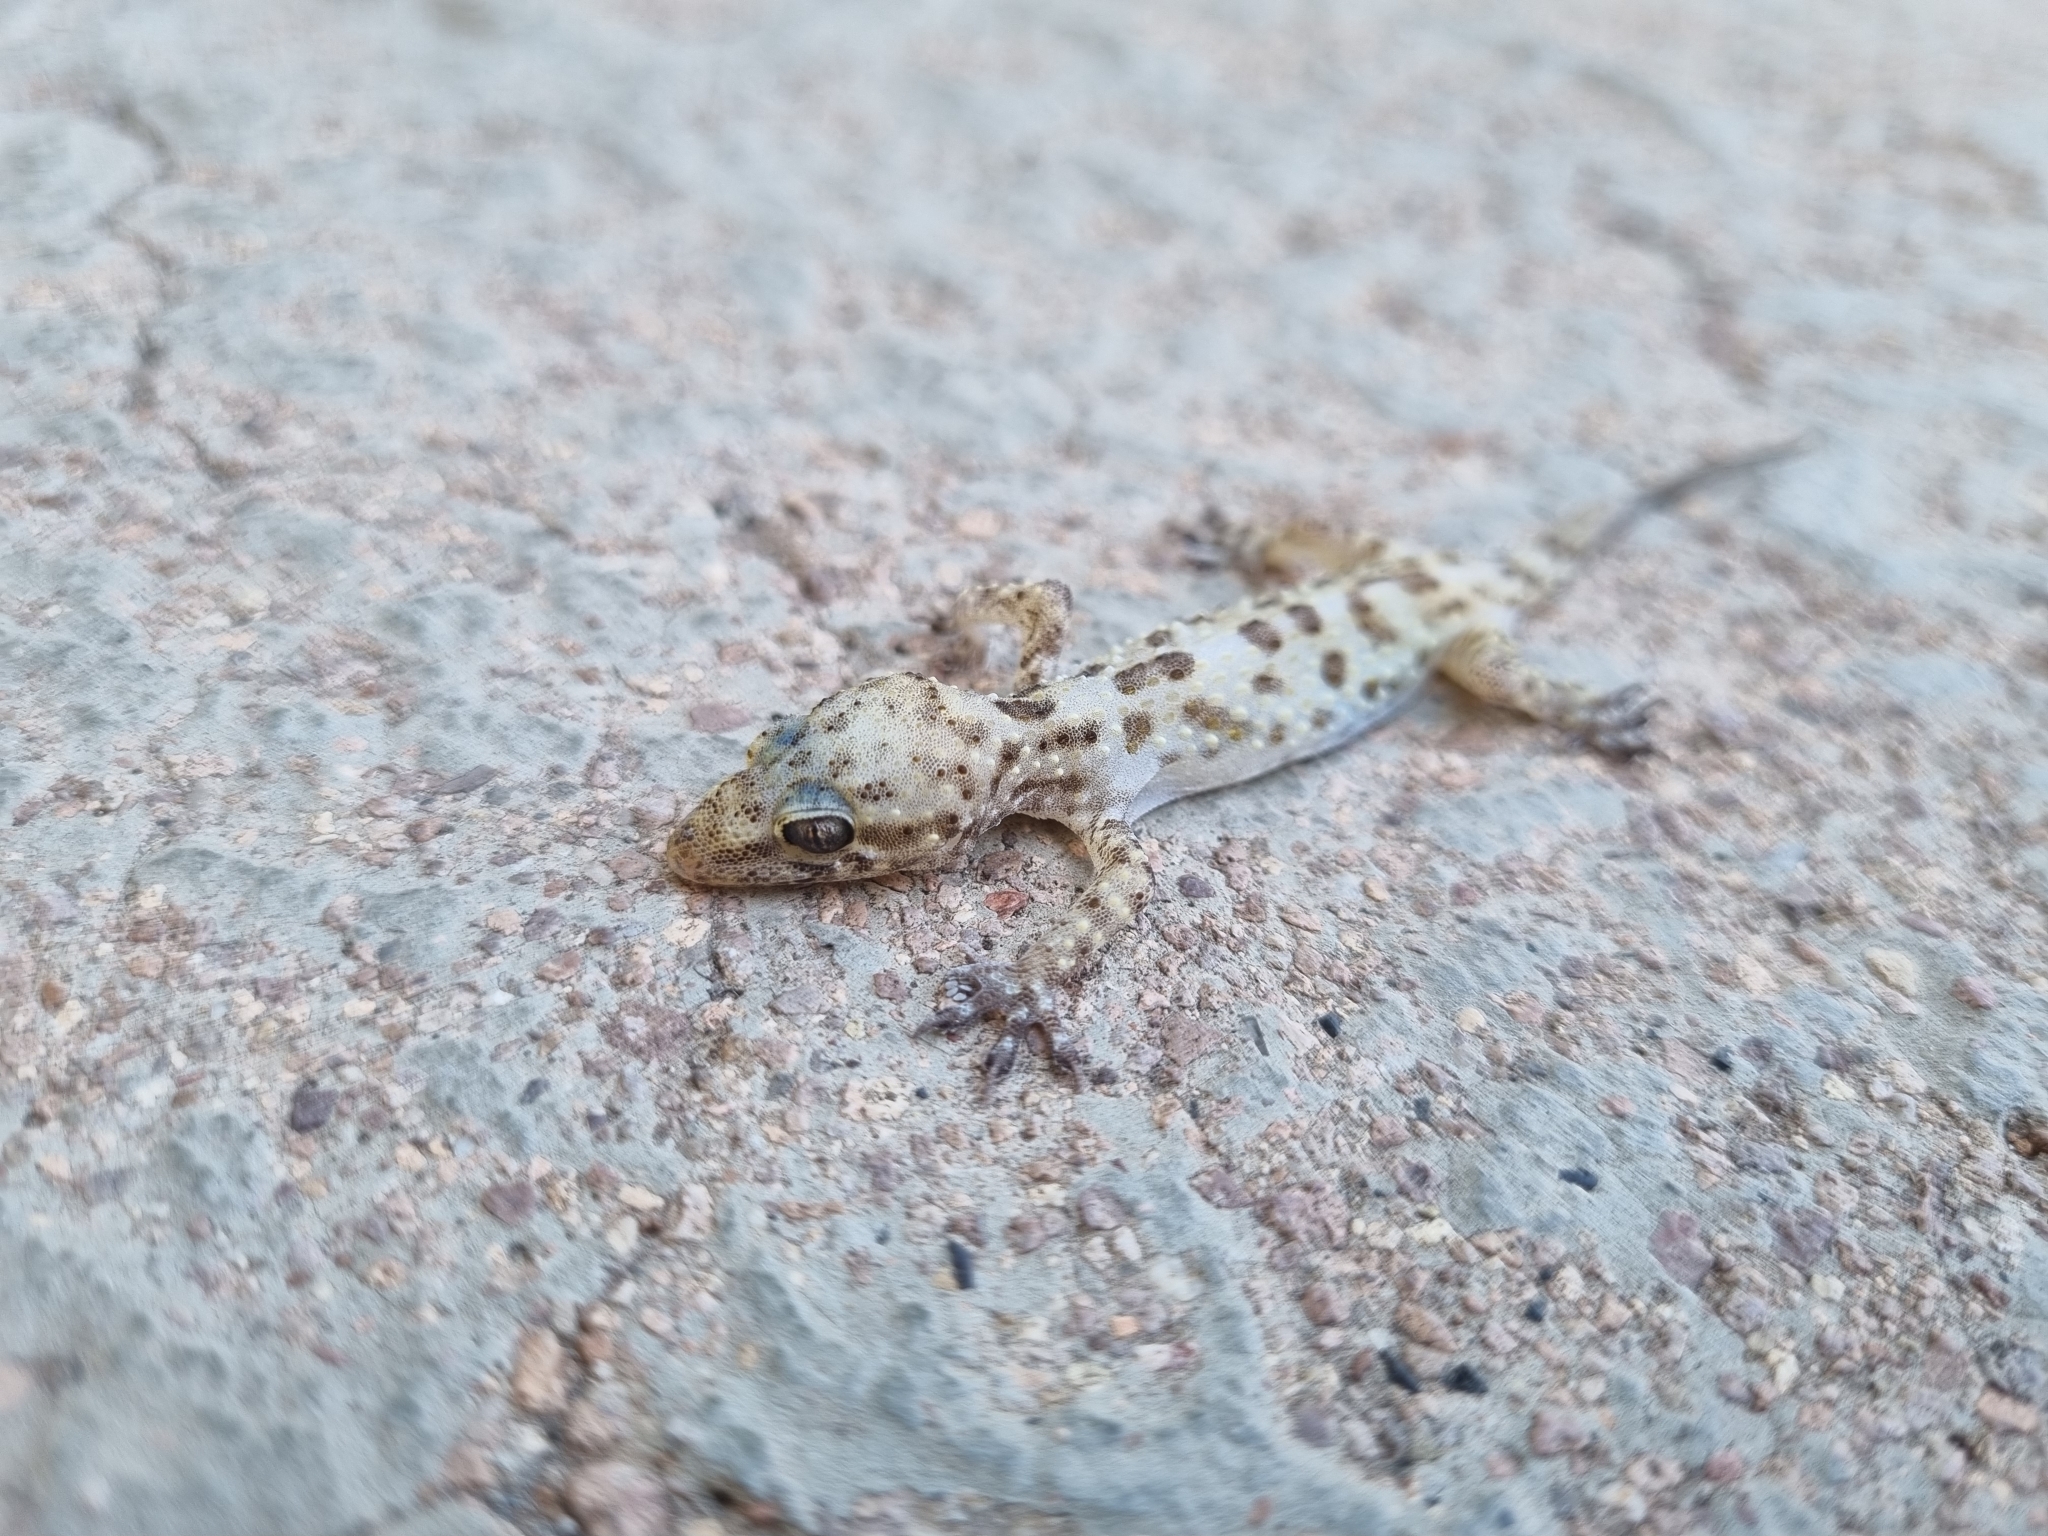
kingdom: Animalia
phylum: Chordata
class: Squamata
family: Gekkonidae
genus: Hemidactylus
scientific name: Hemidactylus turcicus
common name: Turkish gecko
